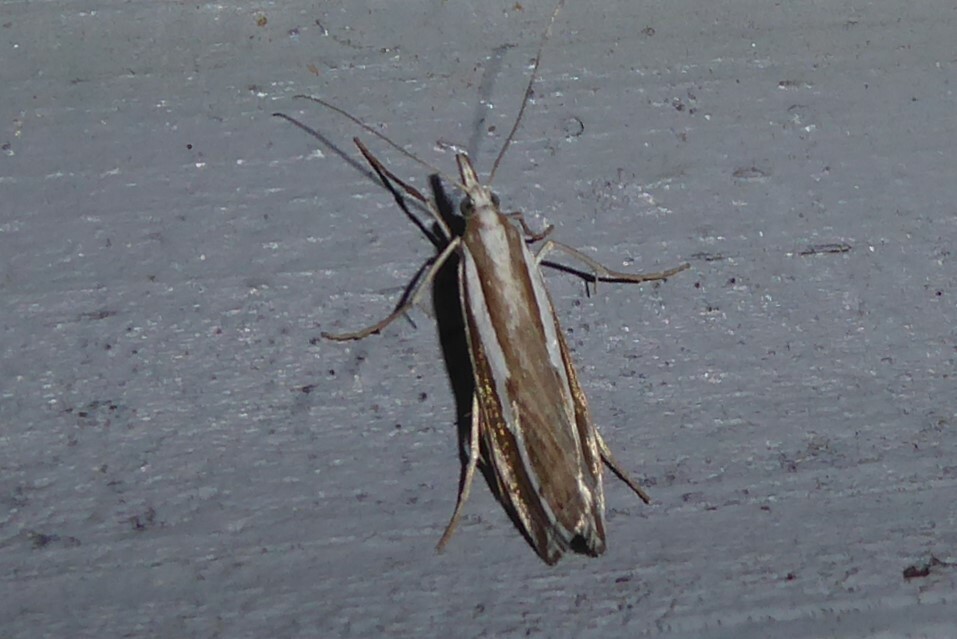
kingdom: Animalia
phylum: Arthropoda
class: Insecta
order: Lepidoptera
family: Crambidae
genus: Orocrambus
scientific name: Orocrambus vittellus
